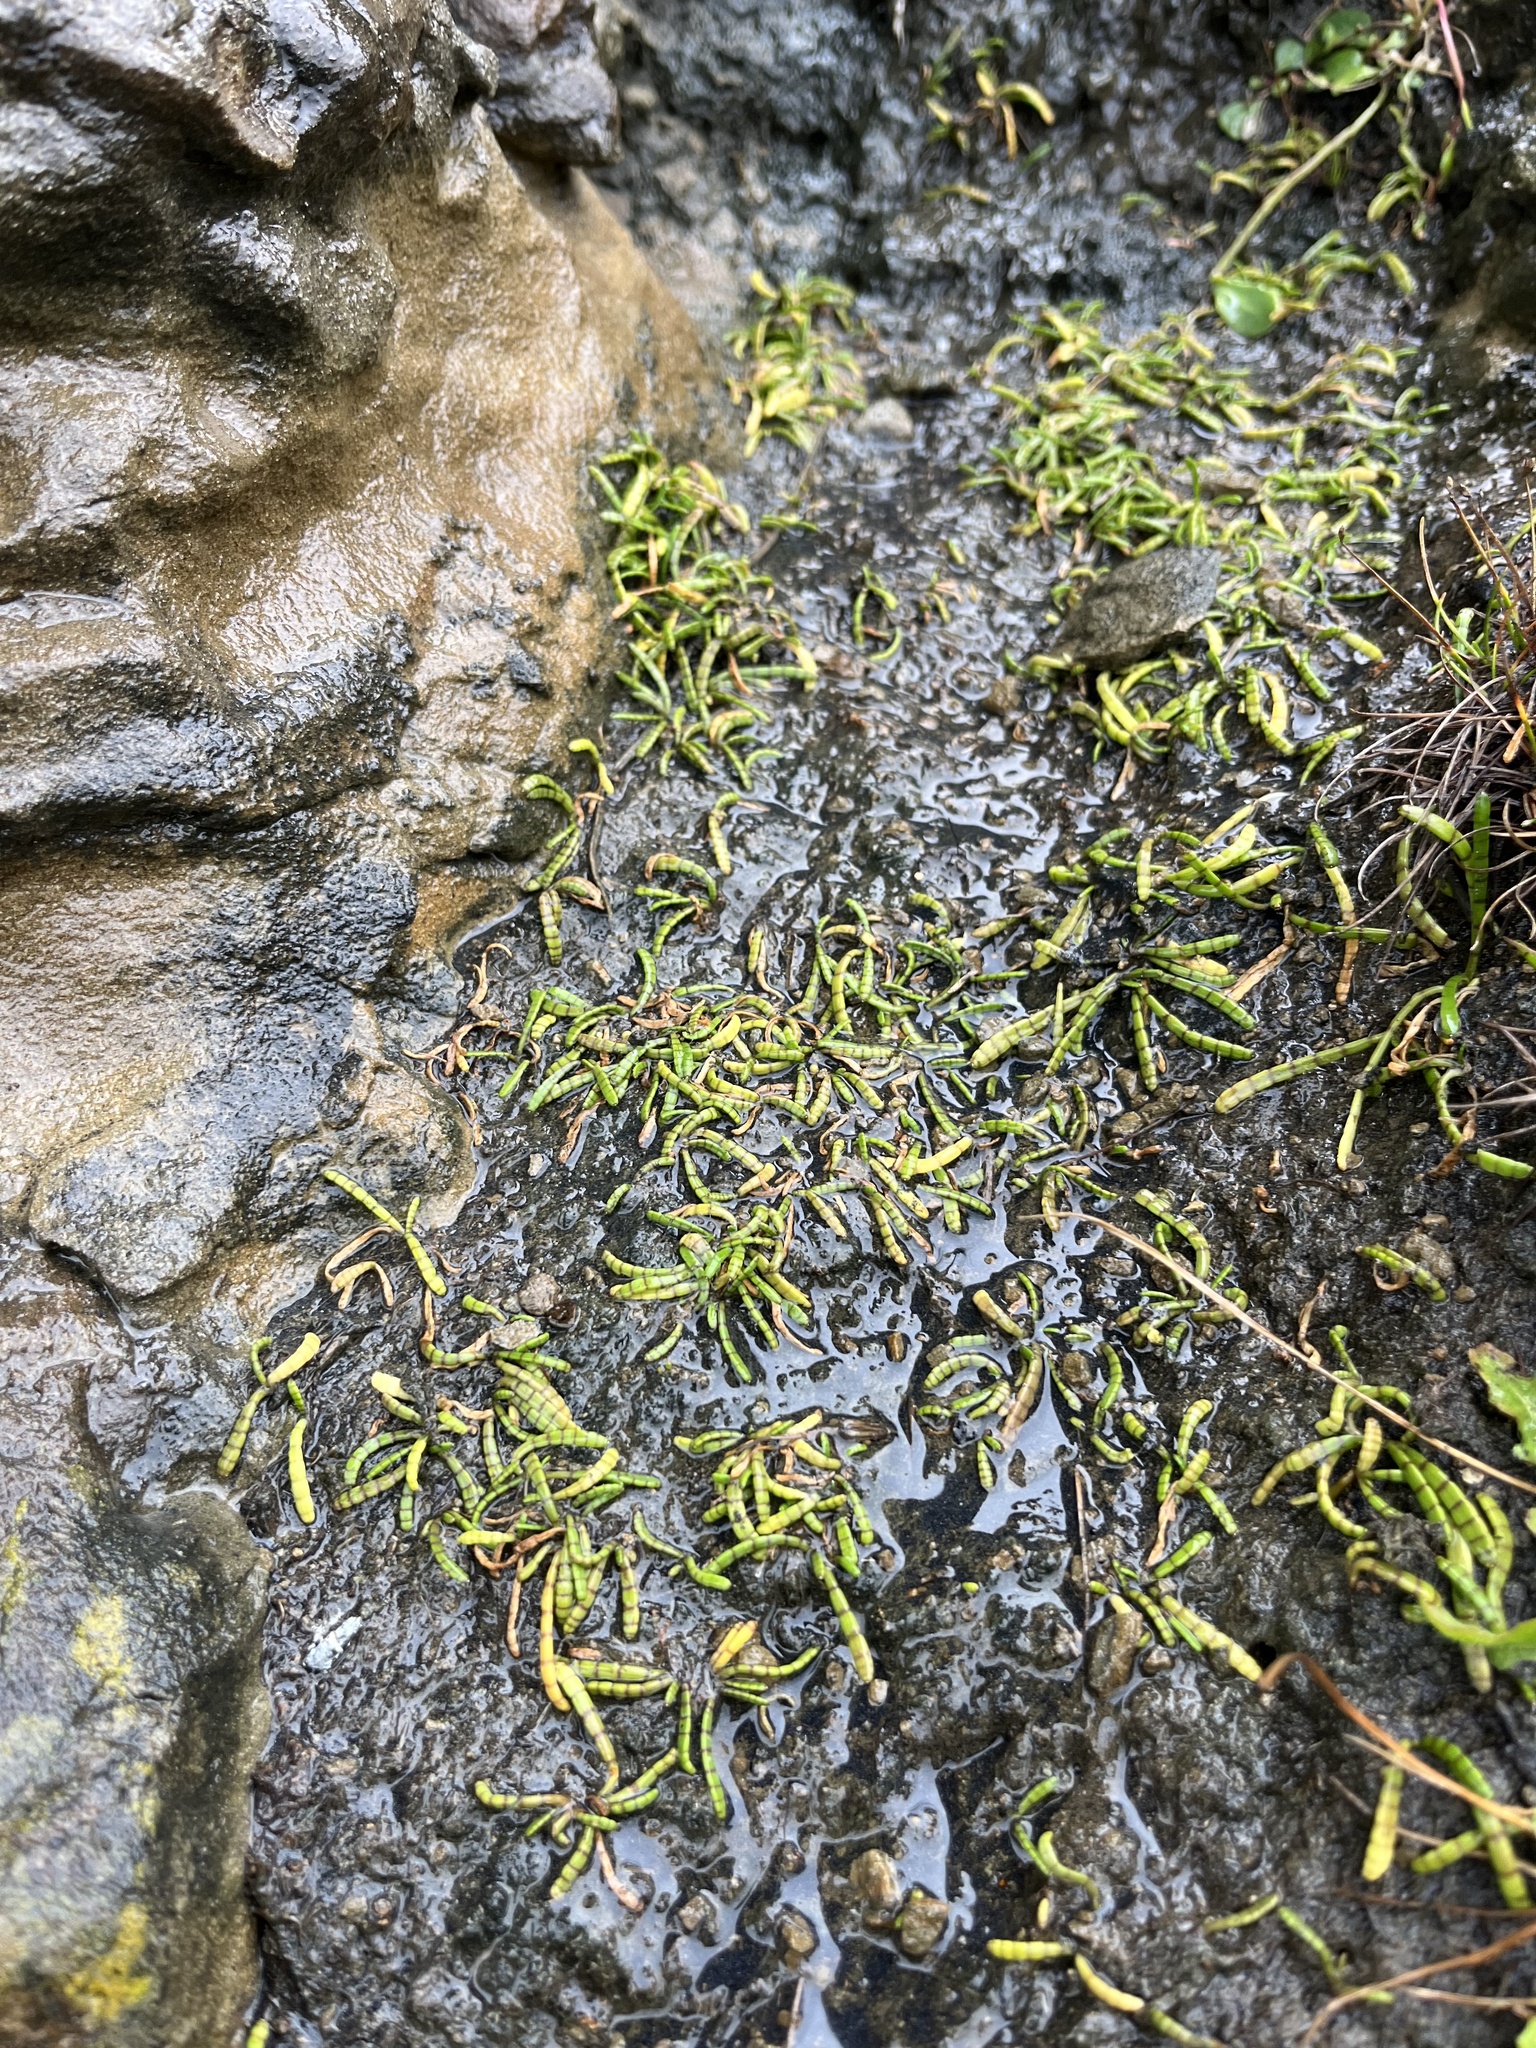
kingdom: Plantae
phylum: Tracheophyta
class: Magnoliopsida
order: Apiales
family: Apiaceae
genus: Lilaeopsis
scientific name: Lilaeopsis novae-zelandiae
